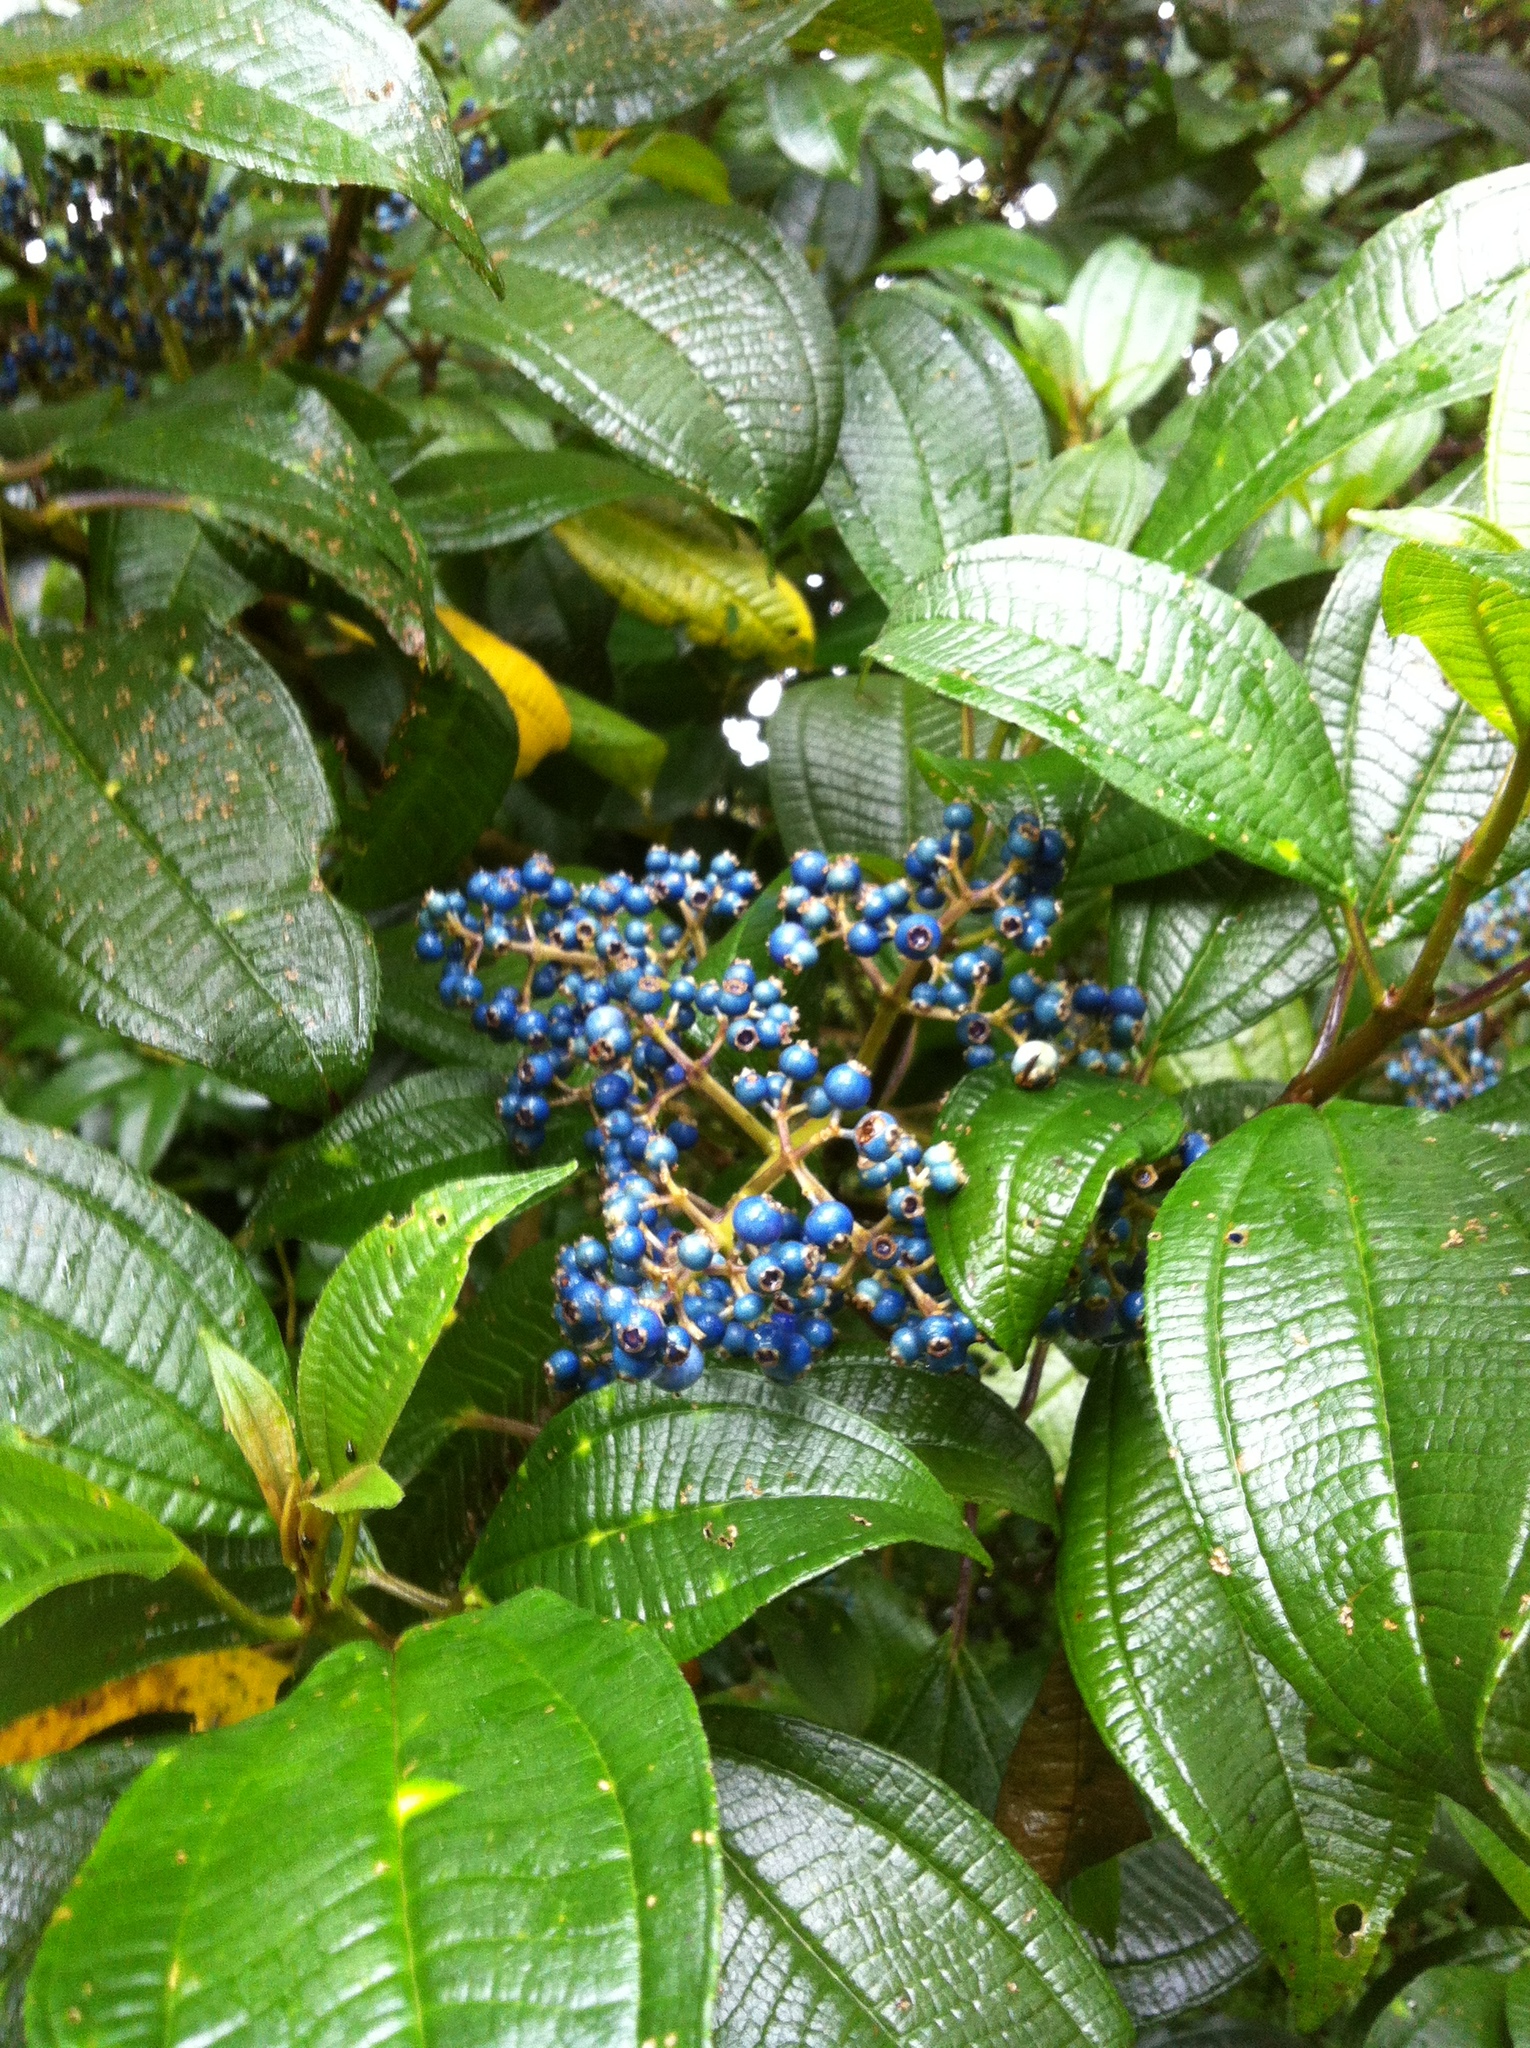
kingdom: Plantae
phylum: Tracheophyta
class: Magnoliopsida
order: Myrtales
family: Melastomataceae
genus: Miconia
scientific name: Miconia tonduzii
